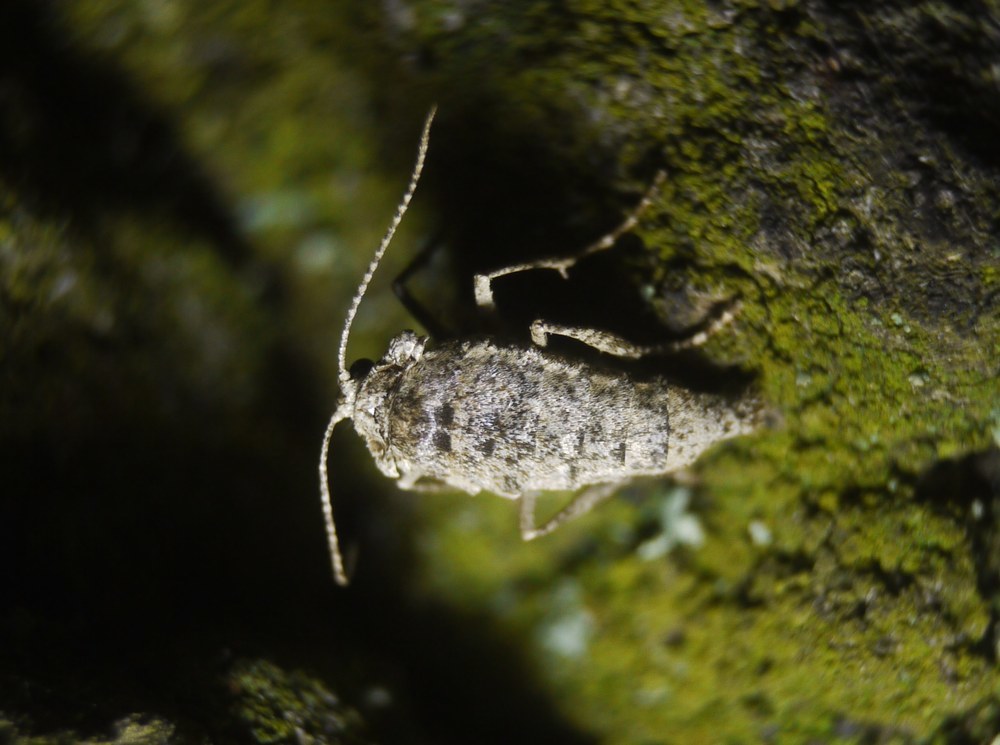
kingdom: Animalia
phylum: Arthropoda
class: Insecta
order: Lepidoptera
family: Geometridae
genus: Agriopis
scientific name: Agriopis bajaria
